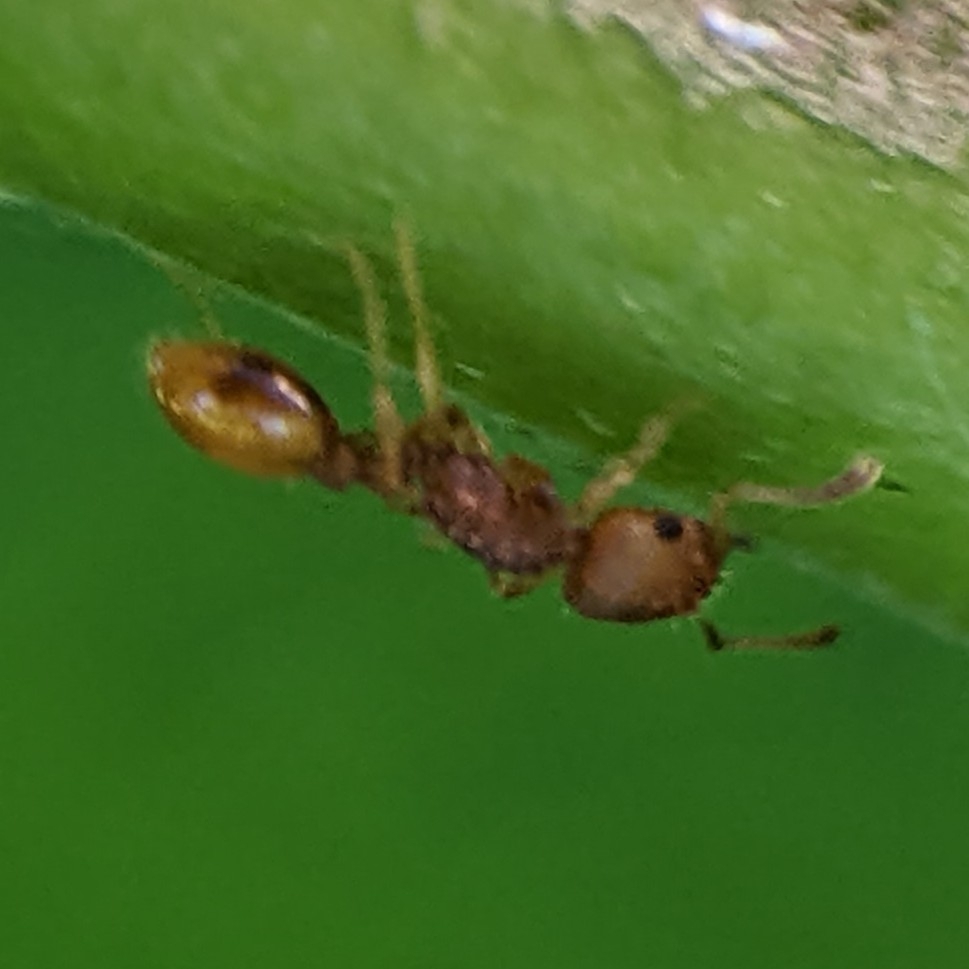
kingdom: Animalia
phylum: Arthropoda
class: Insecta
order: Hymenoptera
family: Formicidae
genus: Temnothorax
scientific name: Temnothorax curvispinosus
